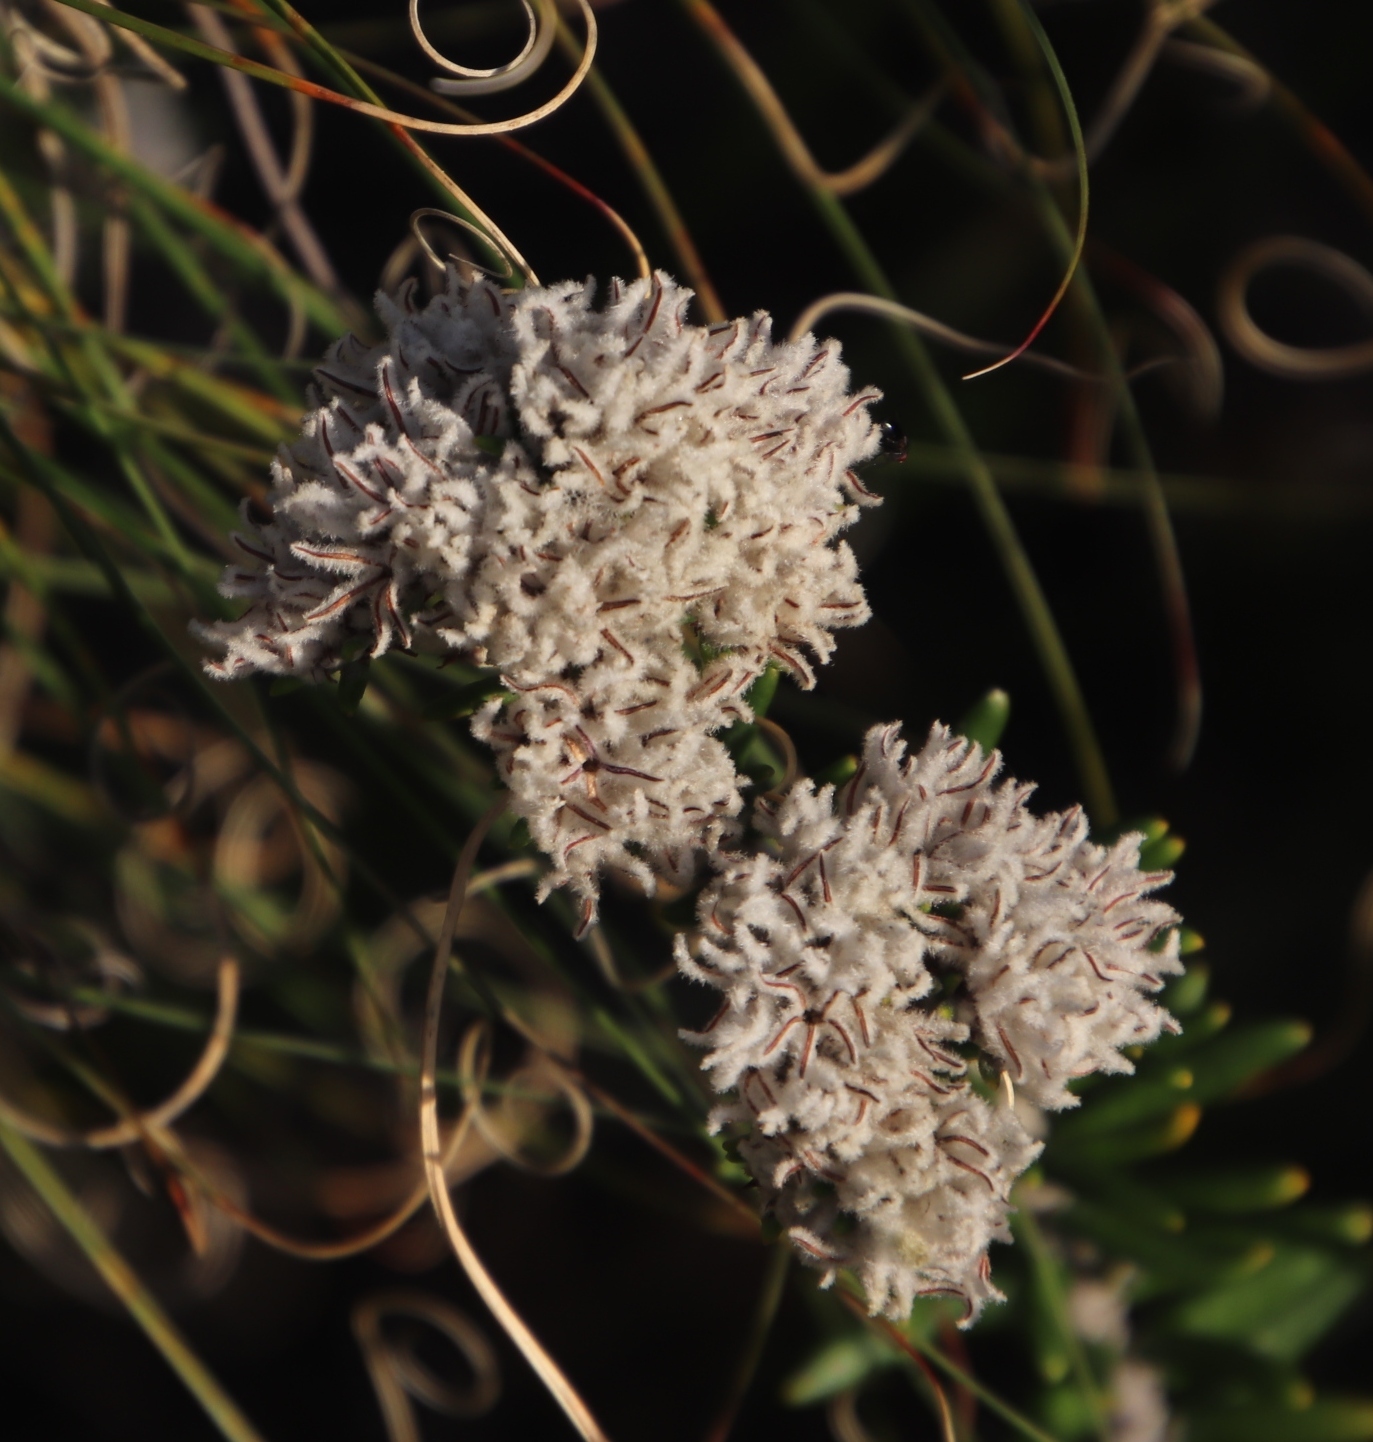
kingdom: Plantae
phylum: Tracheophyta
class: Magnoliopsida
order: Rosales
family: Rhamnaceae
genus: Trichocephalus
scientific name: Trichocephalus stipularis
